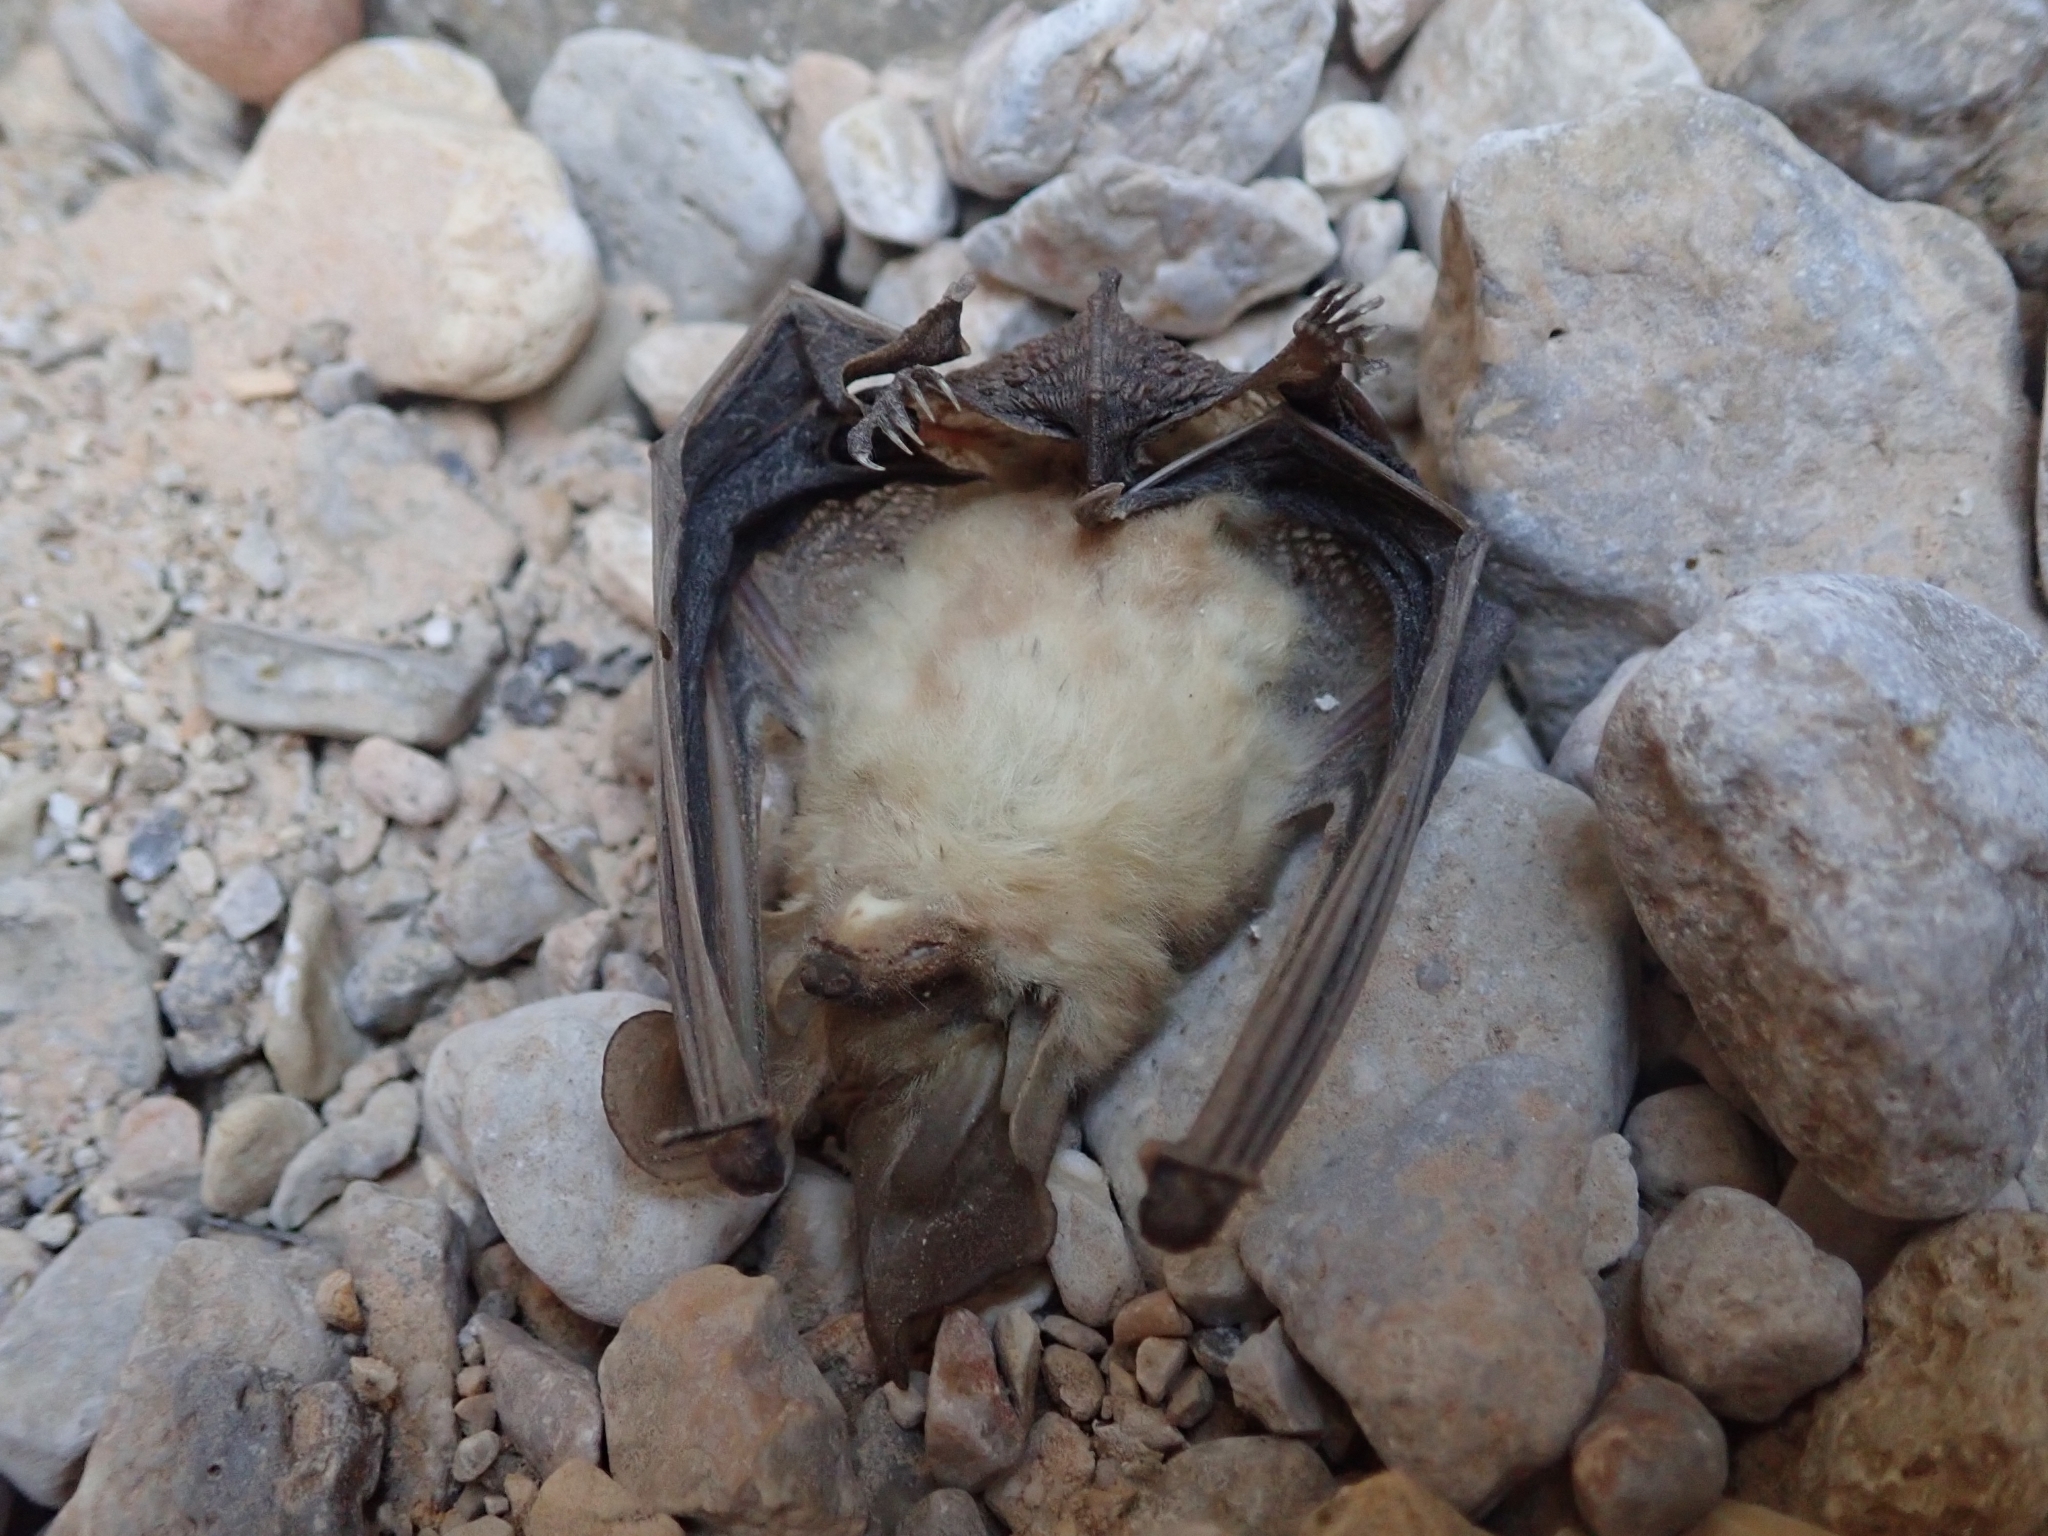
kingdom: Animalia
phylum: Chordata
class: Mammalia
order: Chiroptera
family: Vespertilionidae
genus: Antrozous
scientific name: Antrozous pallidus
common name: Pallid bat
